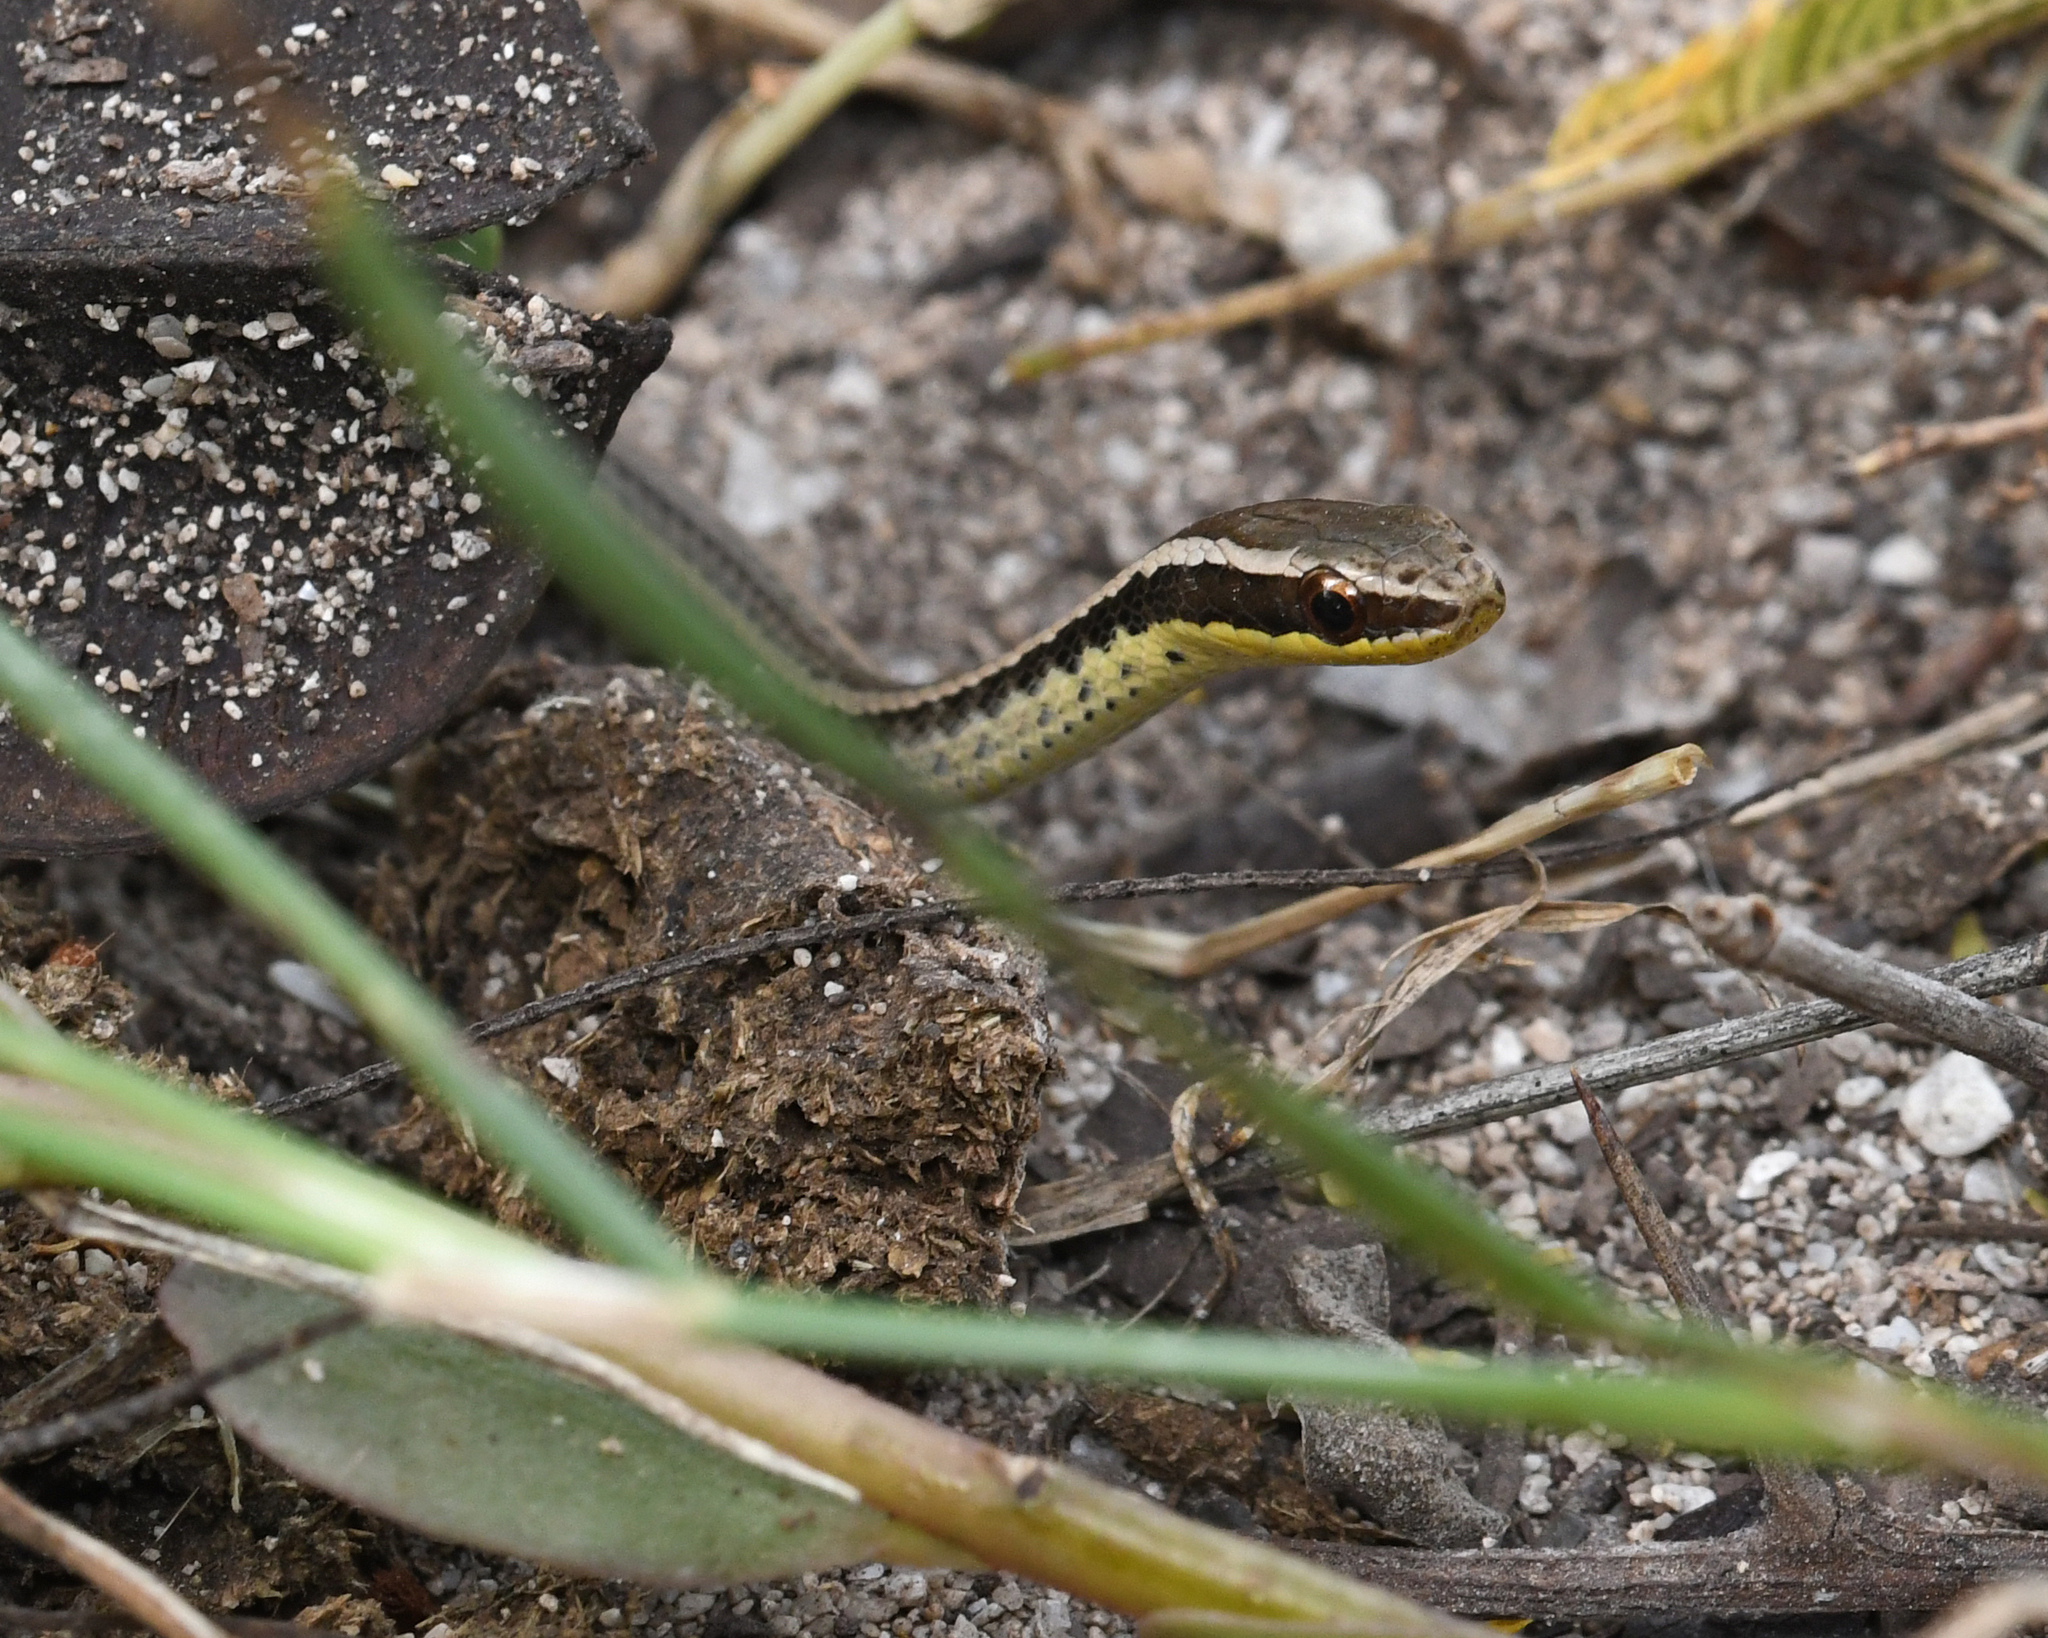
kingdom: Animalia
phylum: Chordata
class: Squamata
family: Colubridae
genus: Hypsirhynchus
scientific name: Hypsirhynchus parvifrons
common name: Cope's antilles snake
